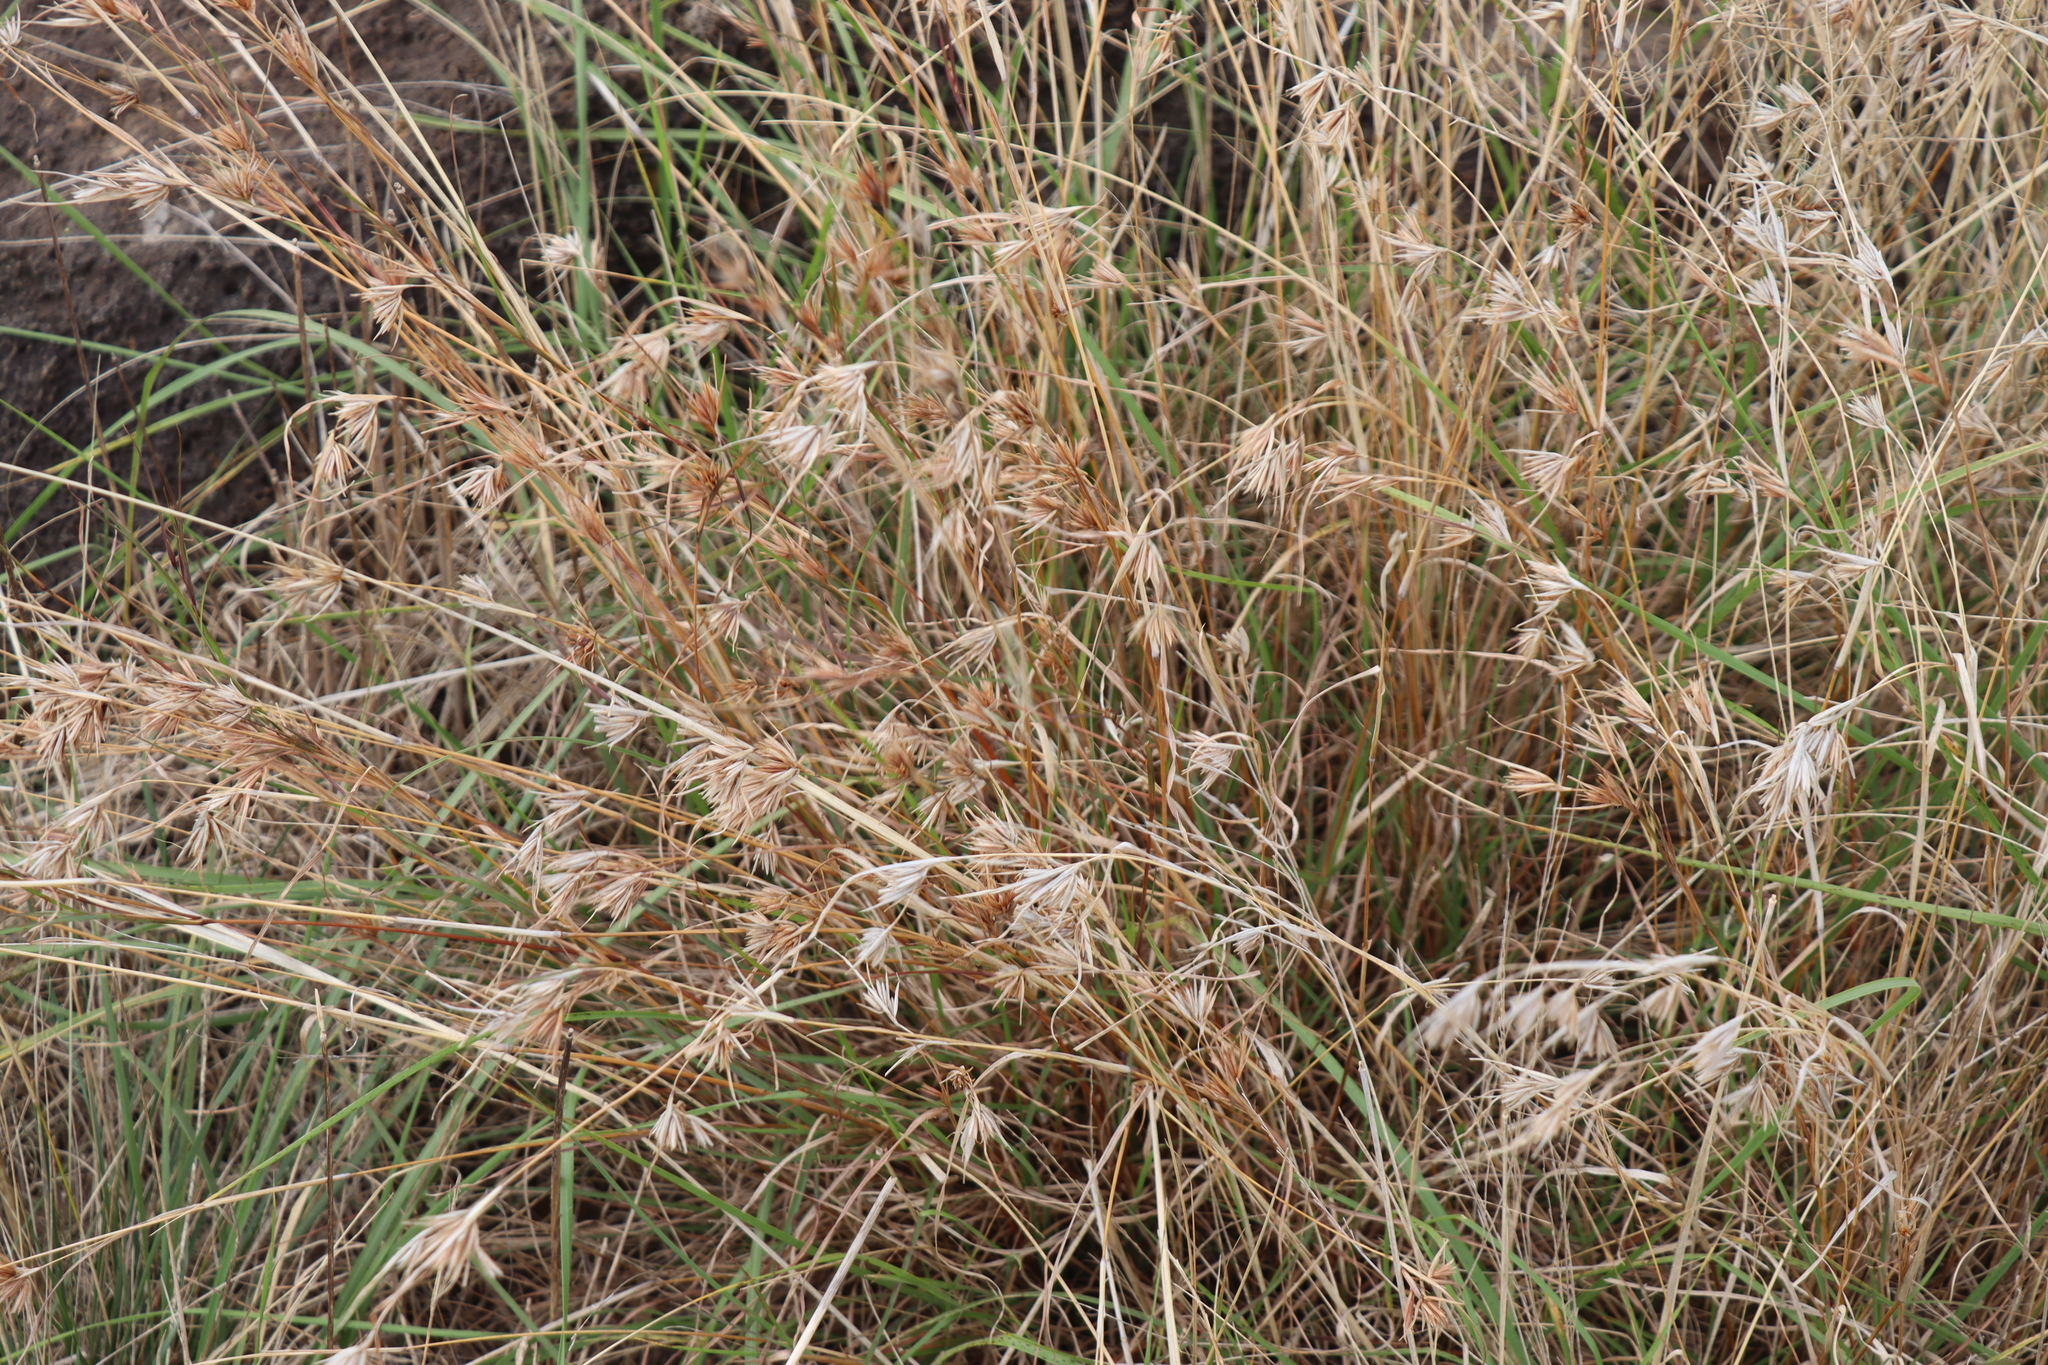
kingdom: Plantae
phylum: Tracheophyta
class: Liliopsida
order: Poales
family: Poaceae
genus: Themeda
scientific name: Themeda triandra
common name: Kangaroo grass
